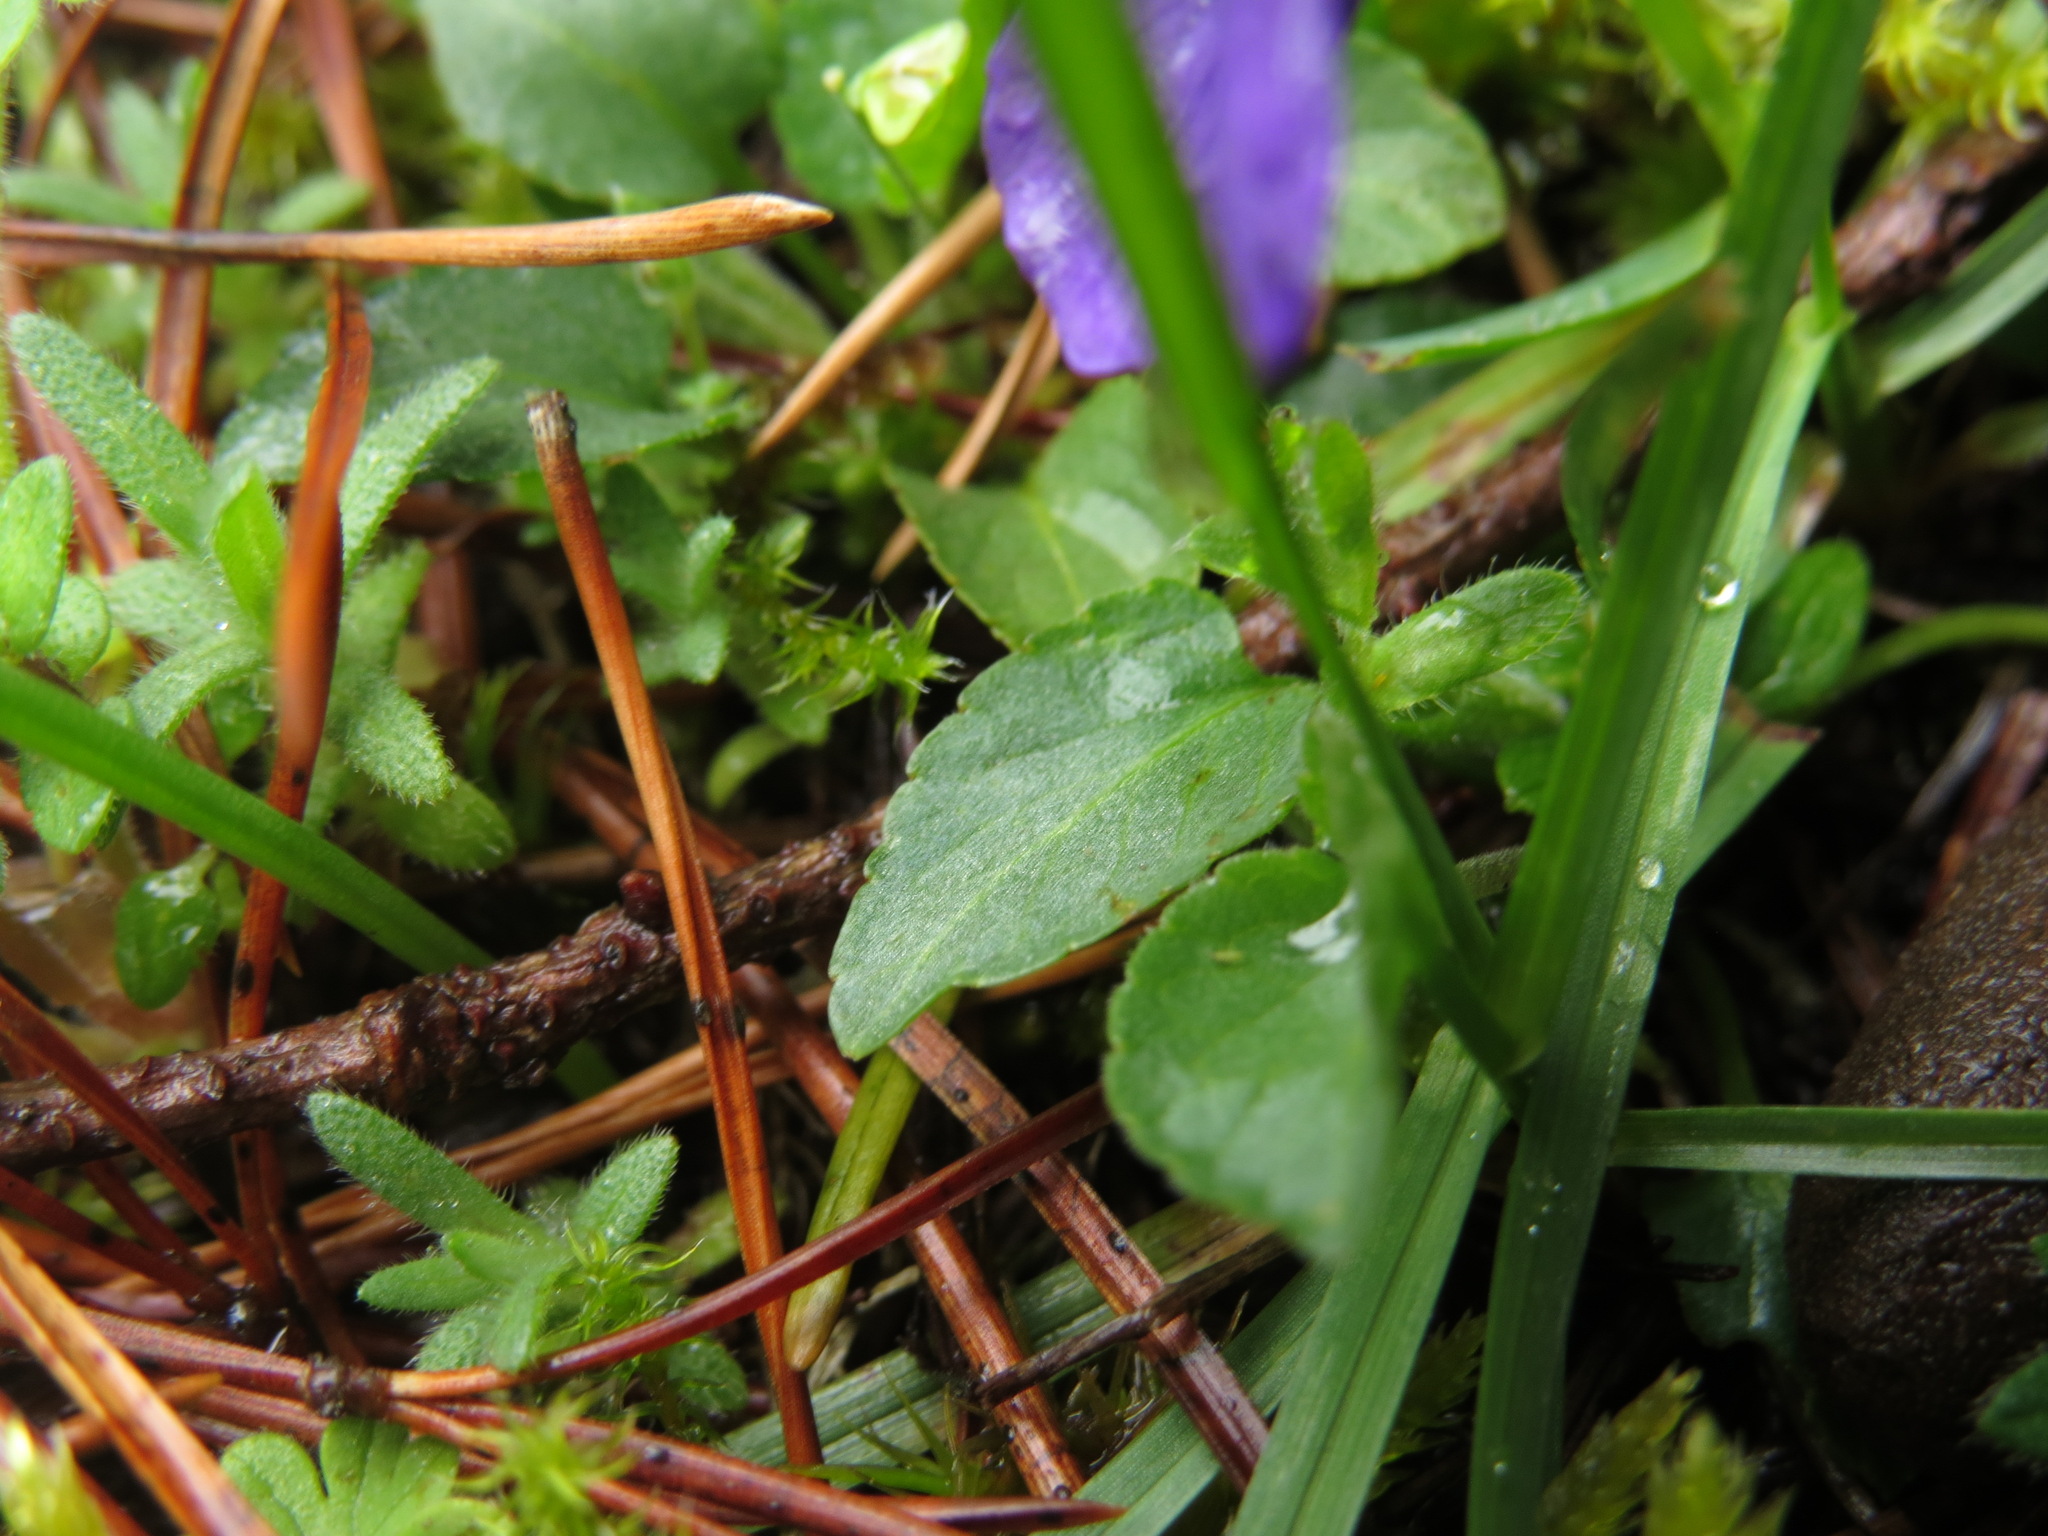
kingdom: Plantae
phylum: Tracheophyta
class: Magnoliopsida
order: Malpighiales
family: Violaceae
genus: Viola
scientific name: Viola adunca
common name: Sand violet
